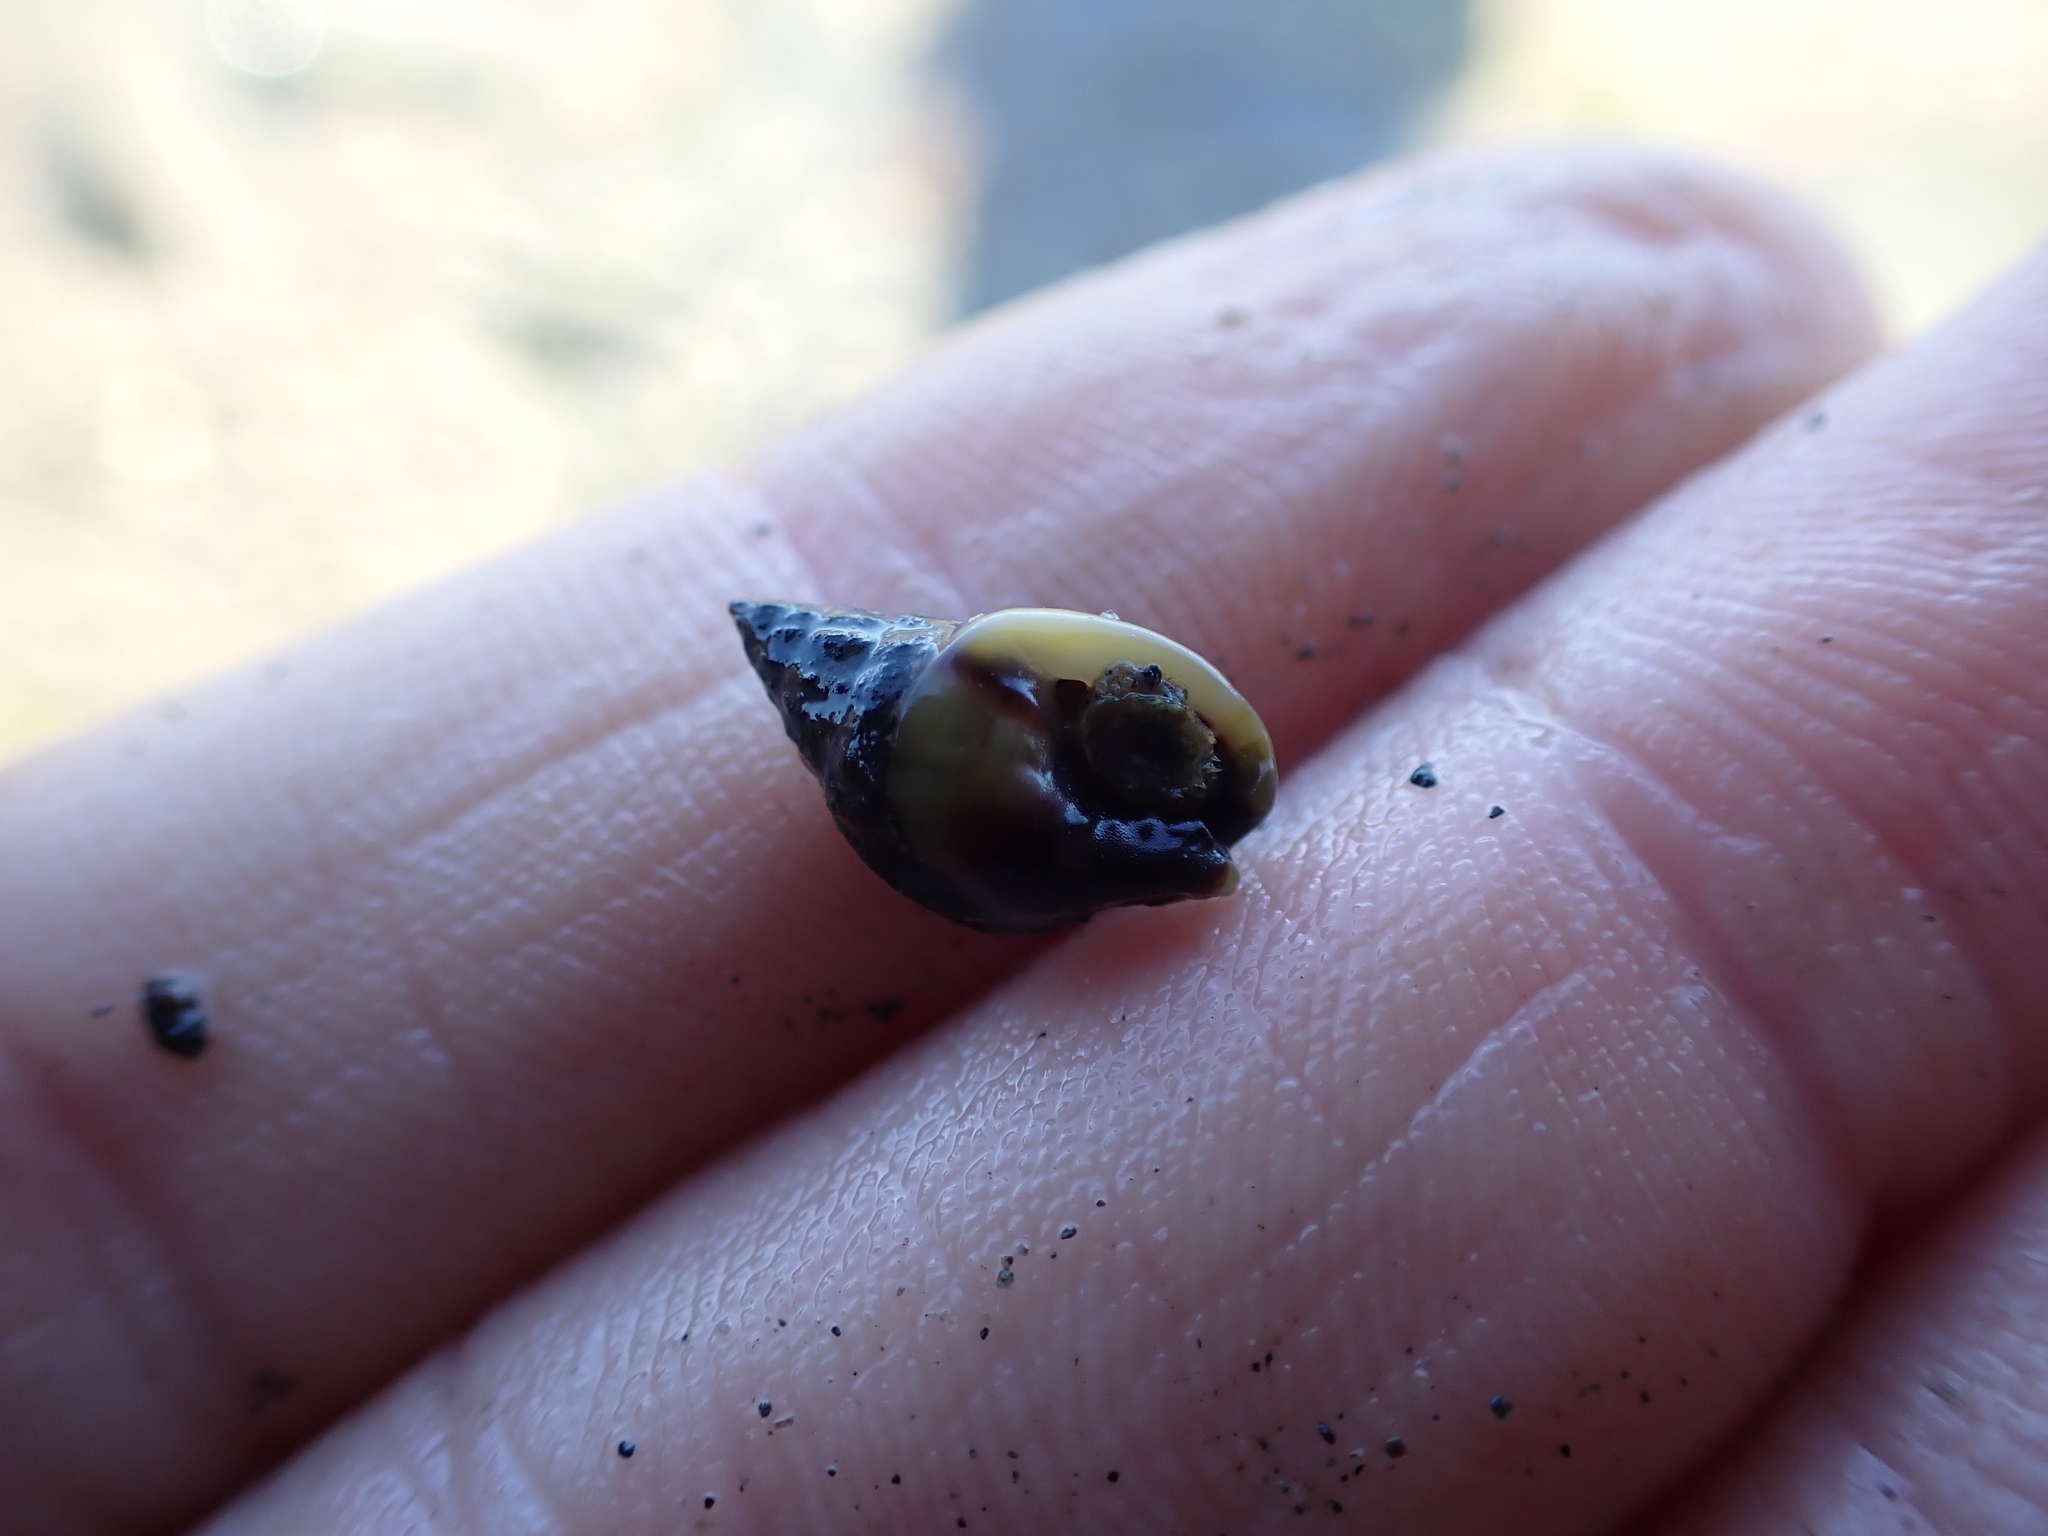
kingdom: Animalia
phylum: Mollusca
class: Gastropoda
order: Neogastropoda
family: Nassariidae
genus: Tritia
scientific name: Tritia burchardi
